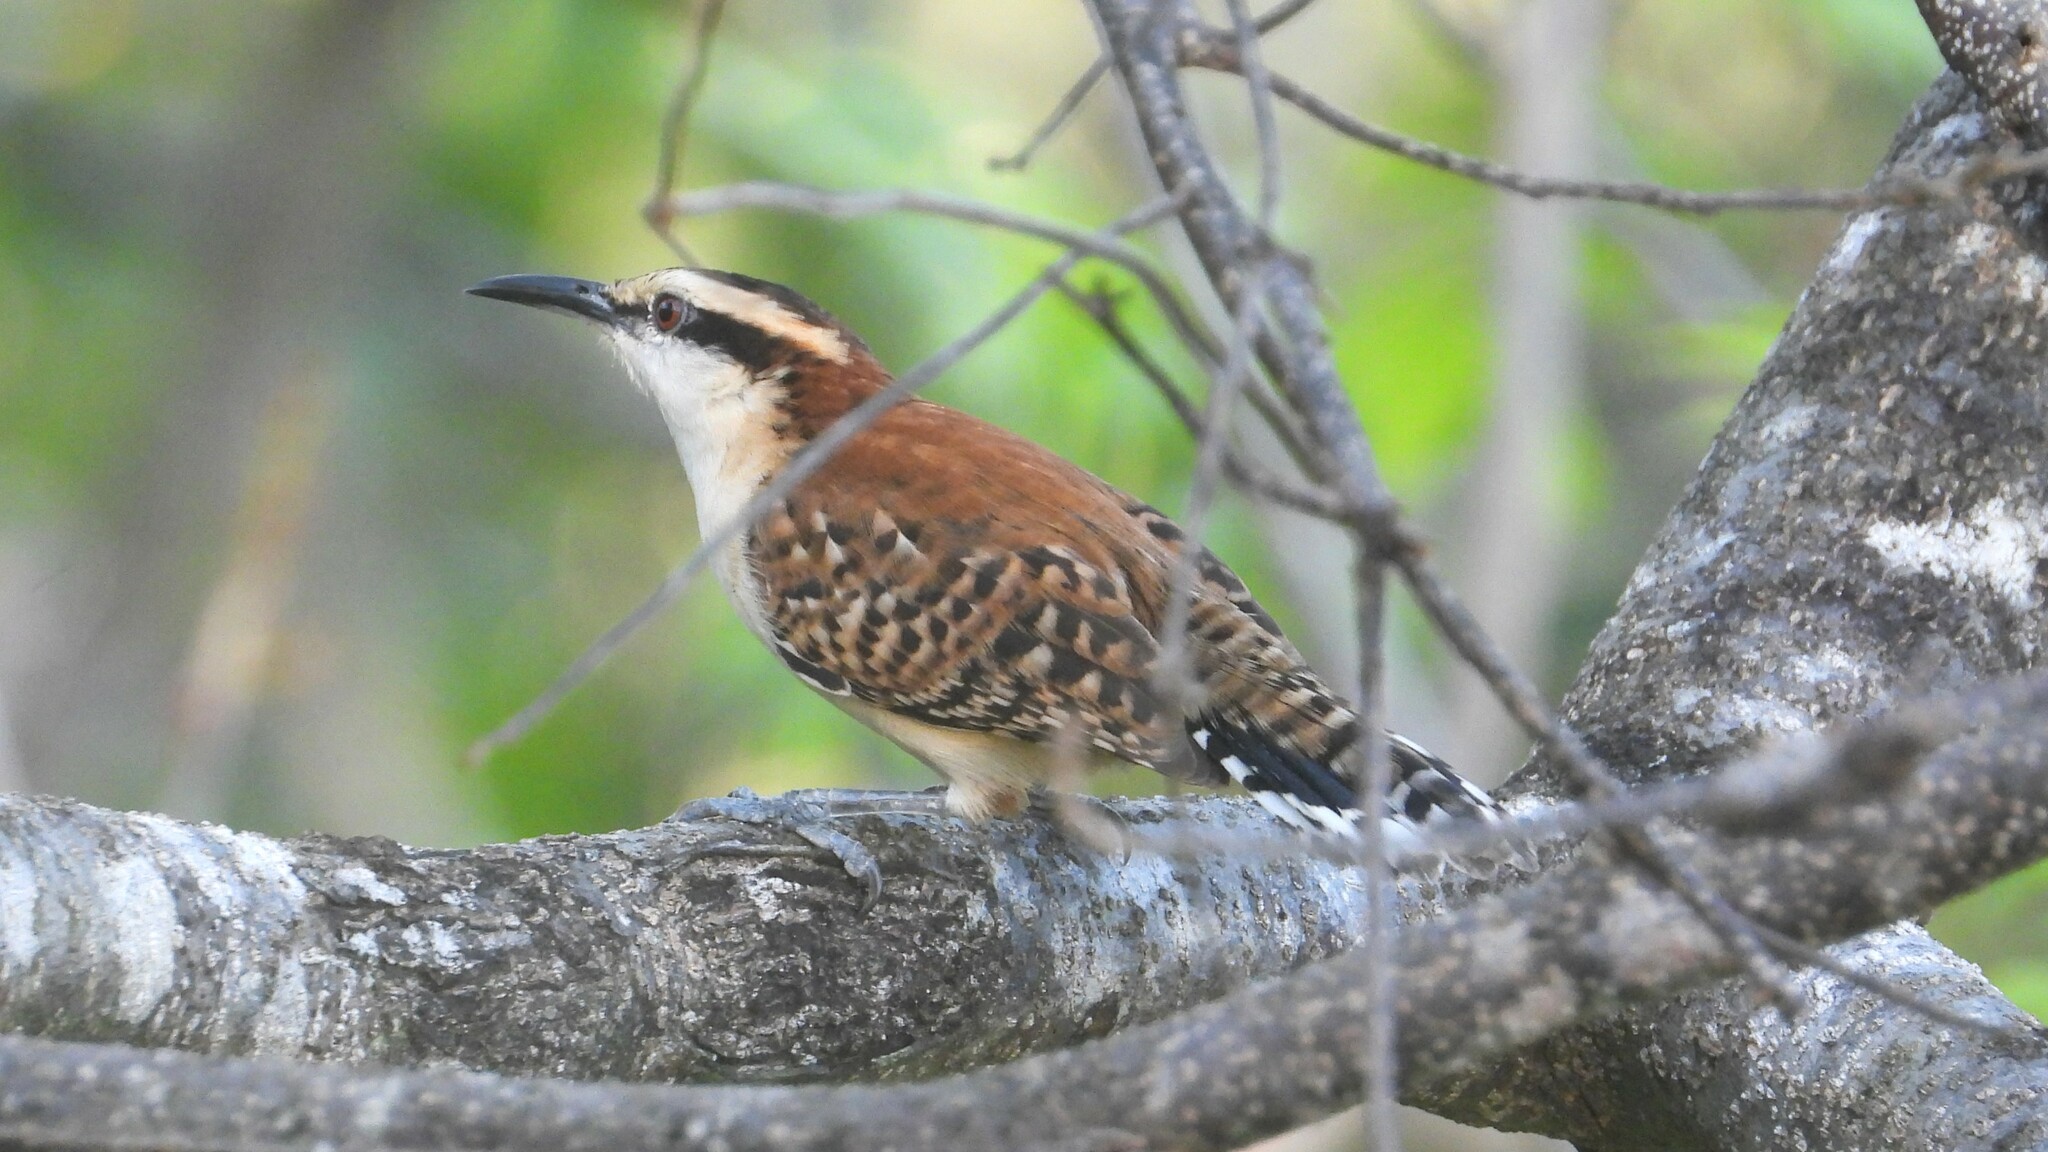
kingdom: Animalia
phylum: Chordata
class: Aves
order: Passeriformes
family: Troglodytidae
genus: Campylorhynchus
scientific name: Campylorhynchus rufinucha
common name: Rufous-naped wren
